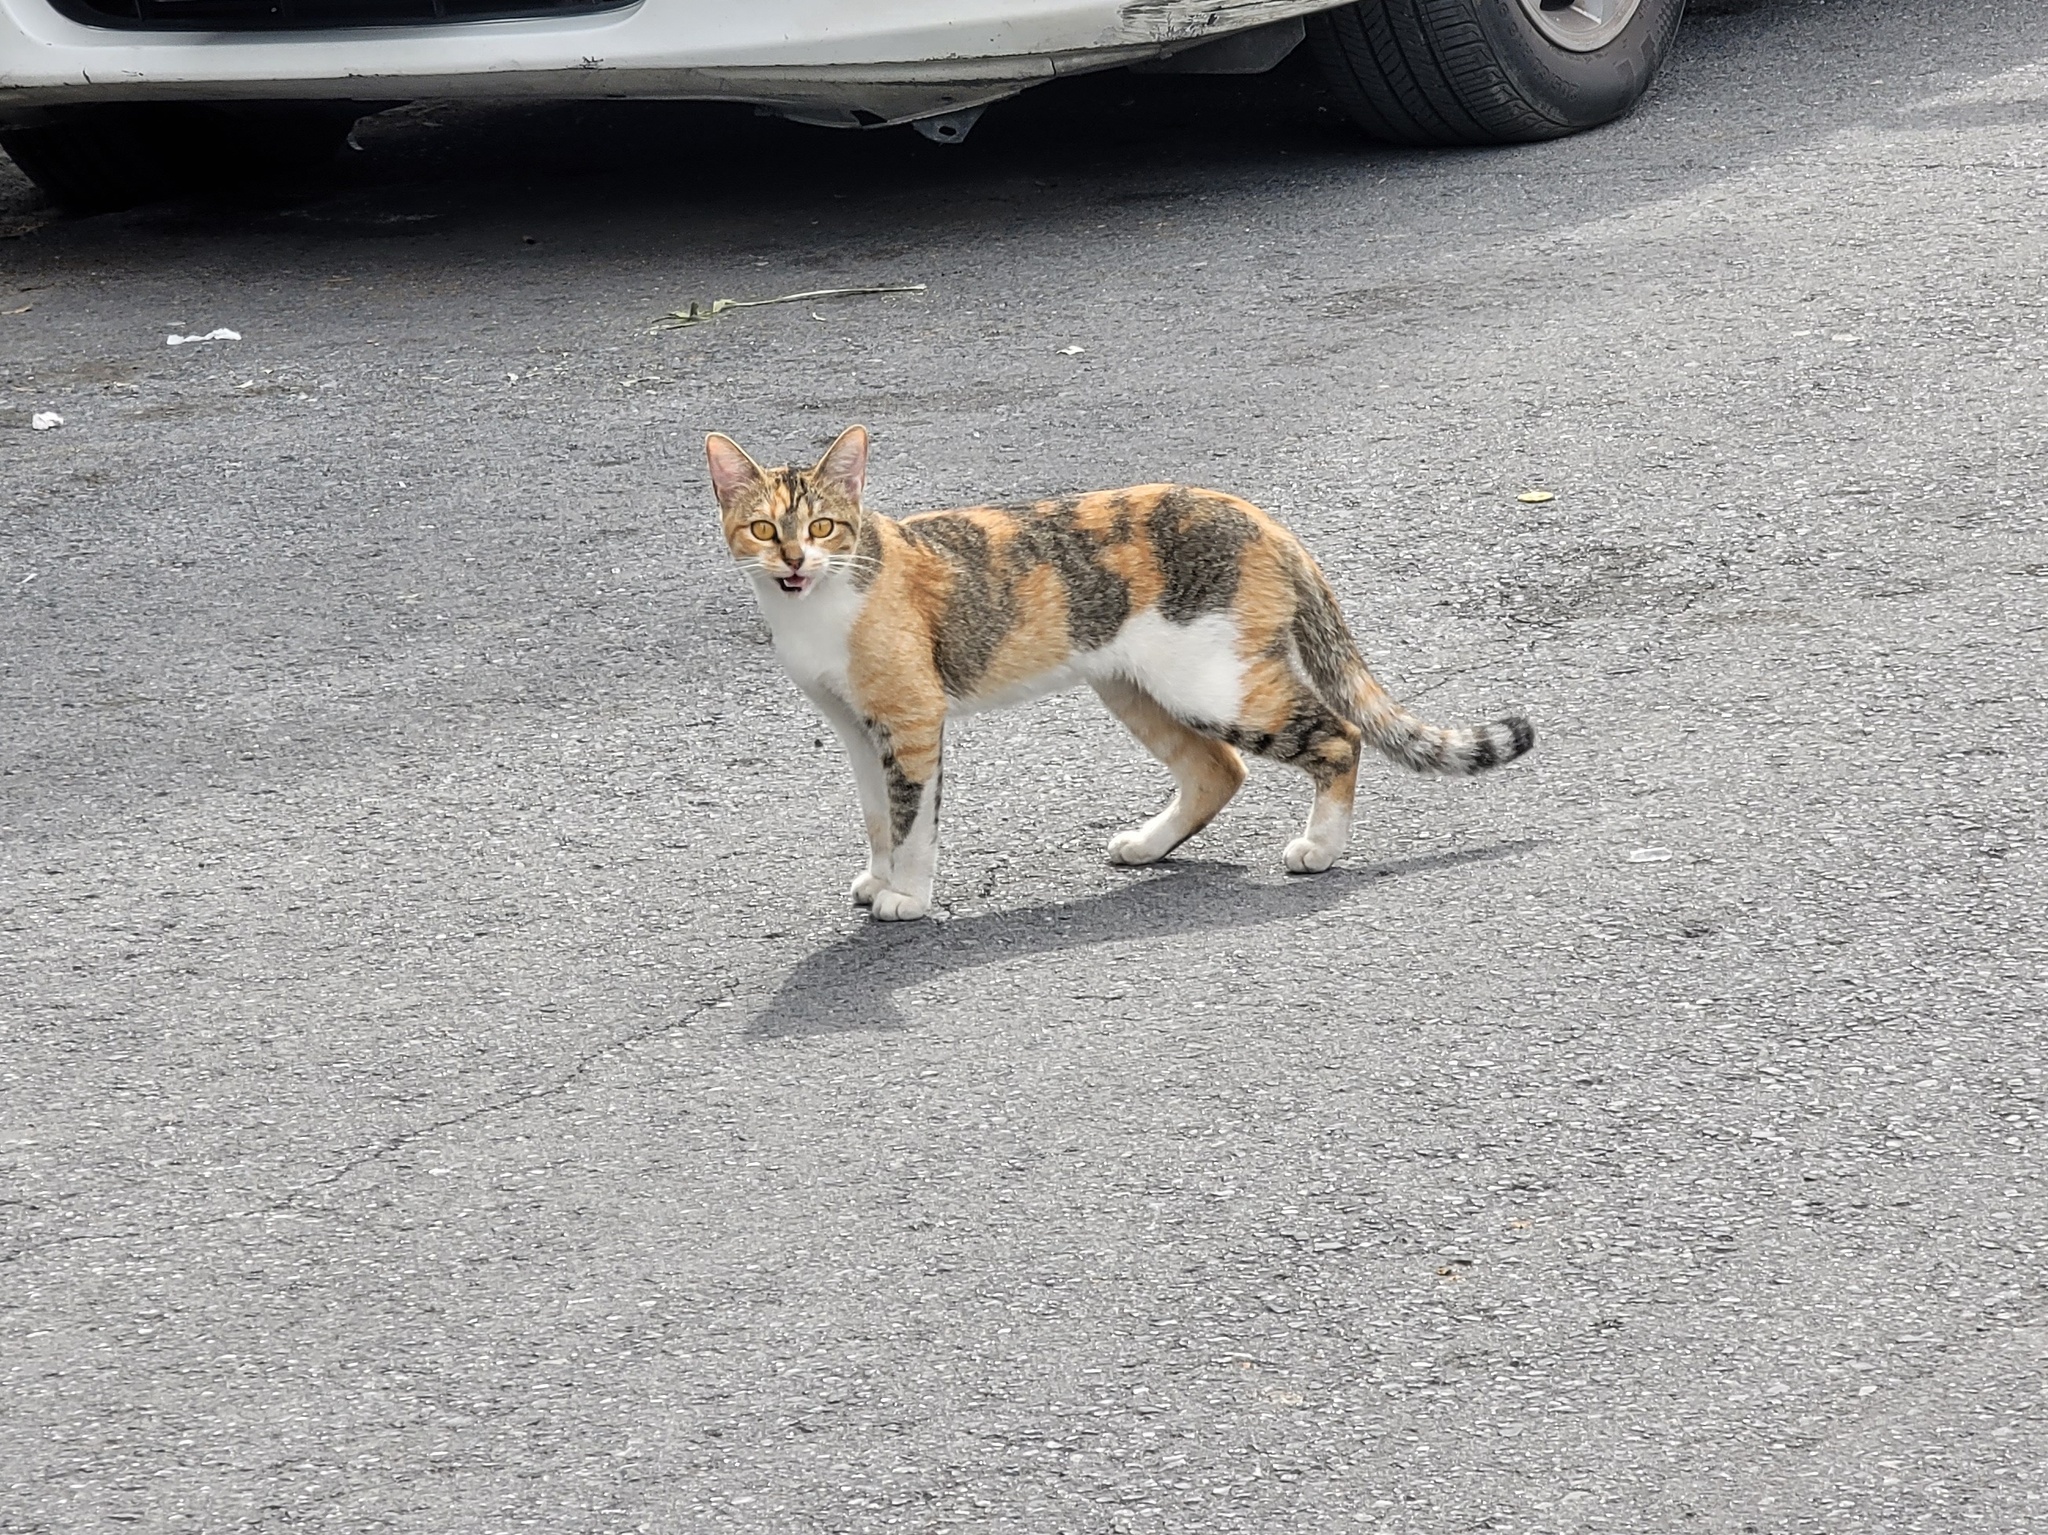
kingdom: Animalia
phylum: Chordata
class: Mammalia
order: Carnivora
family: Felidae
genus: Felis
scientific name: Felis catus
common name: Domestic cat
